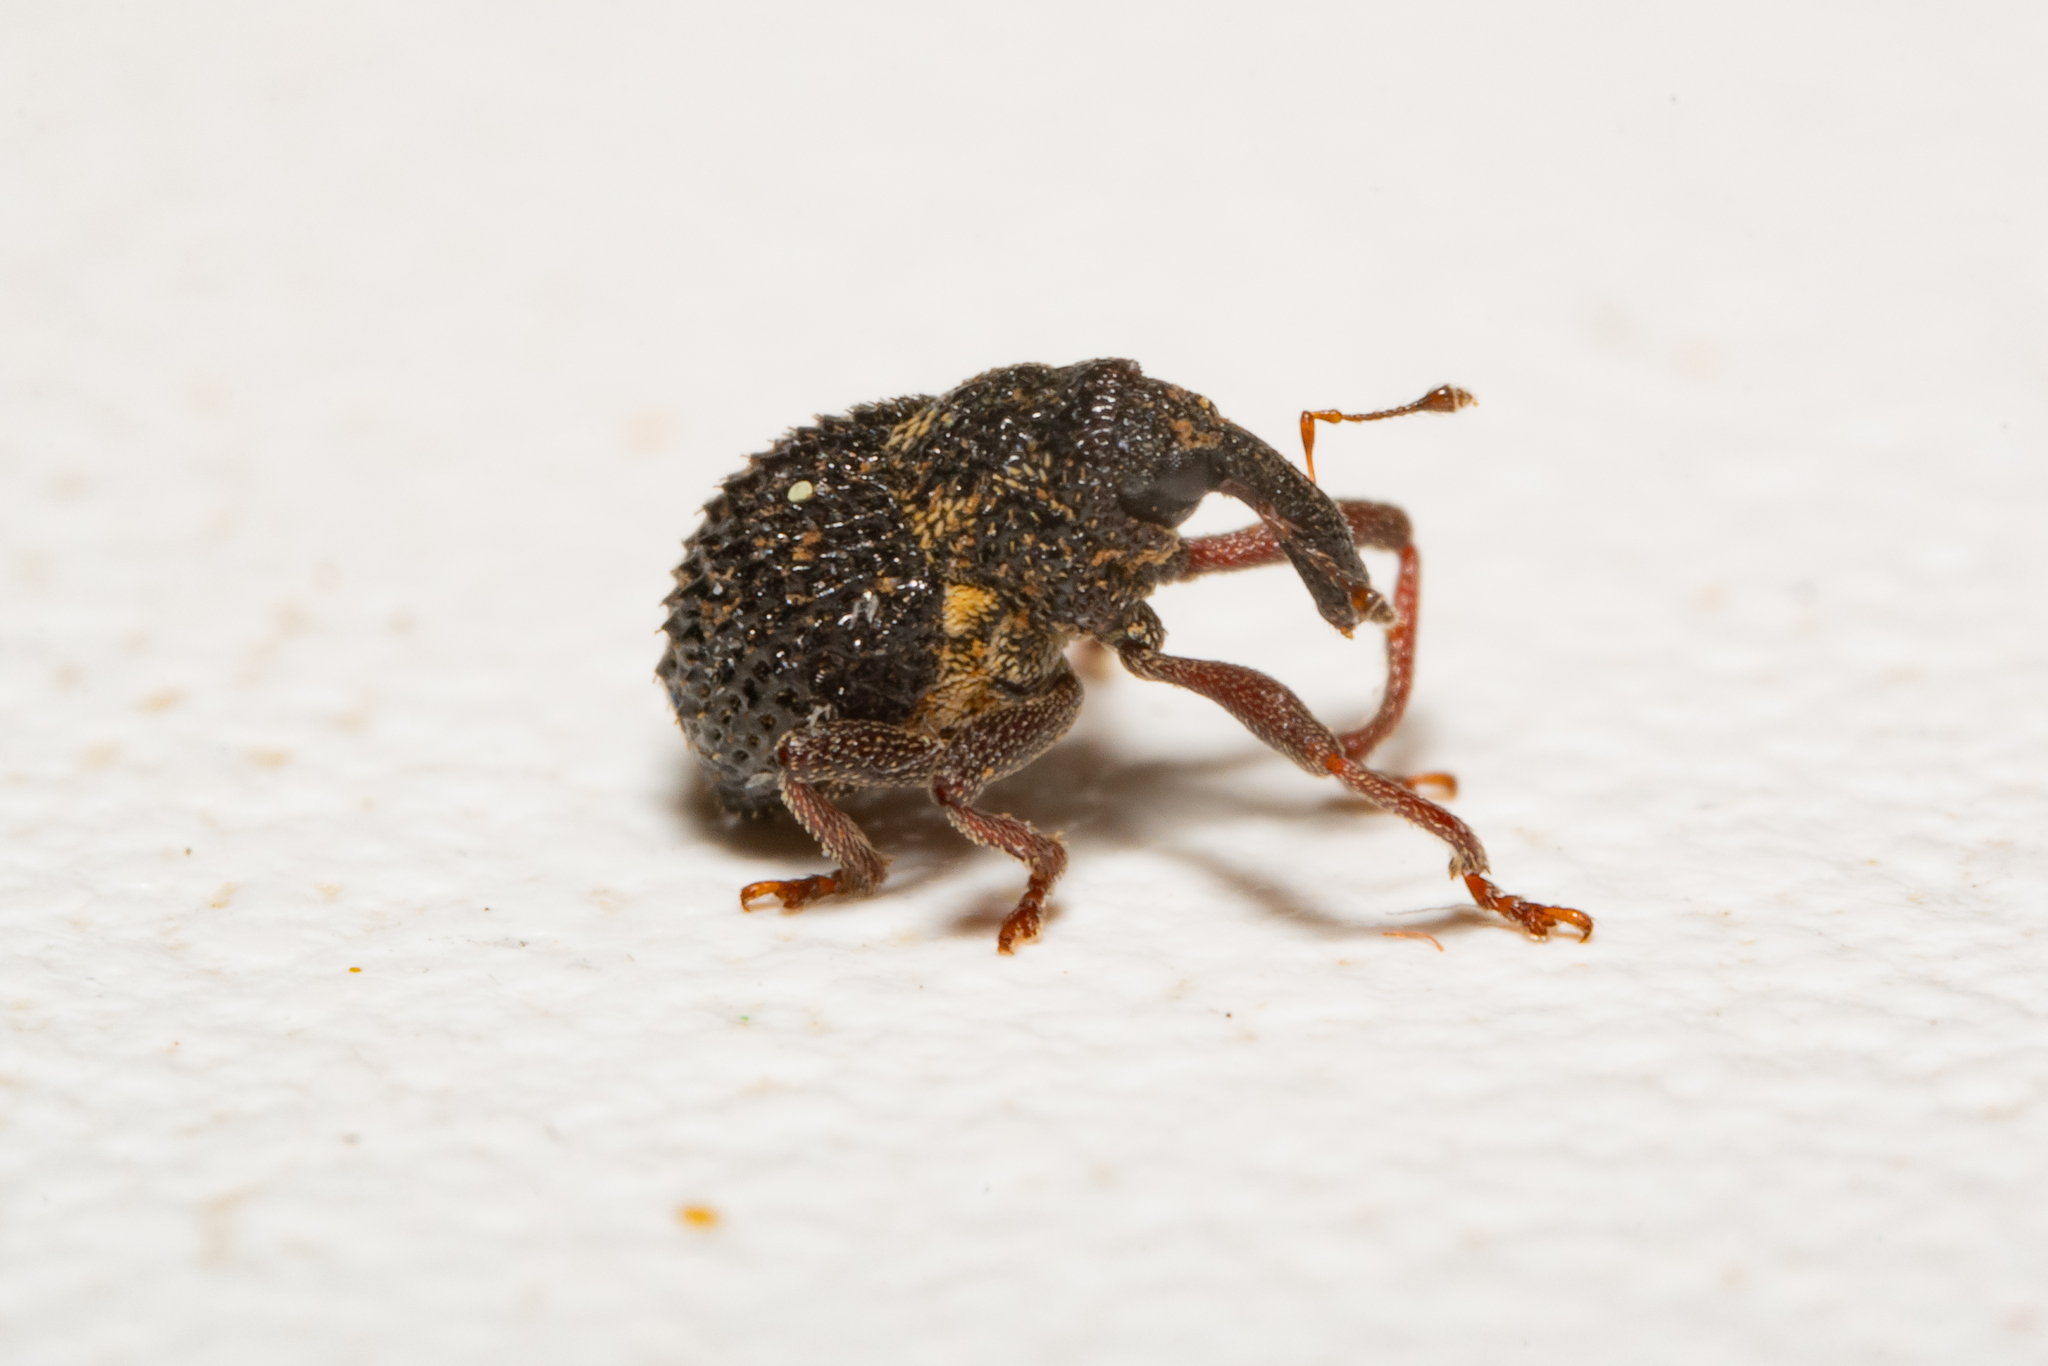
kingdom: Animalia
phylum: Arthropoda
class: Insecta
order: Coleoptera
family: Curculionidae
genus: Scleropterus
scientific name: Scleropterus serratus
